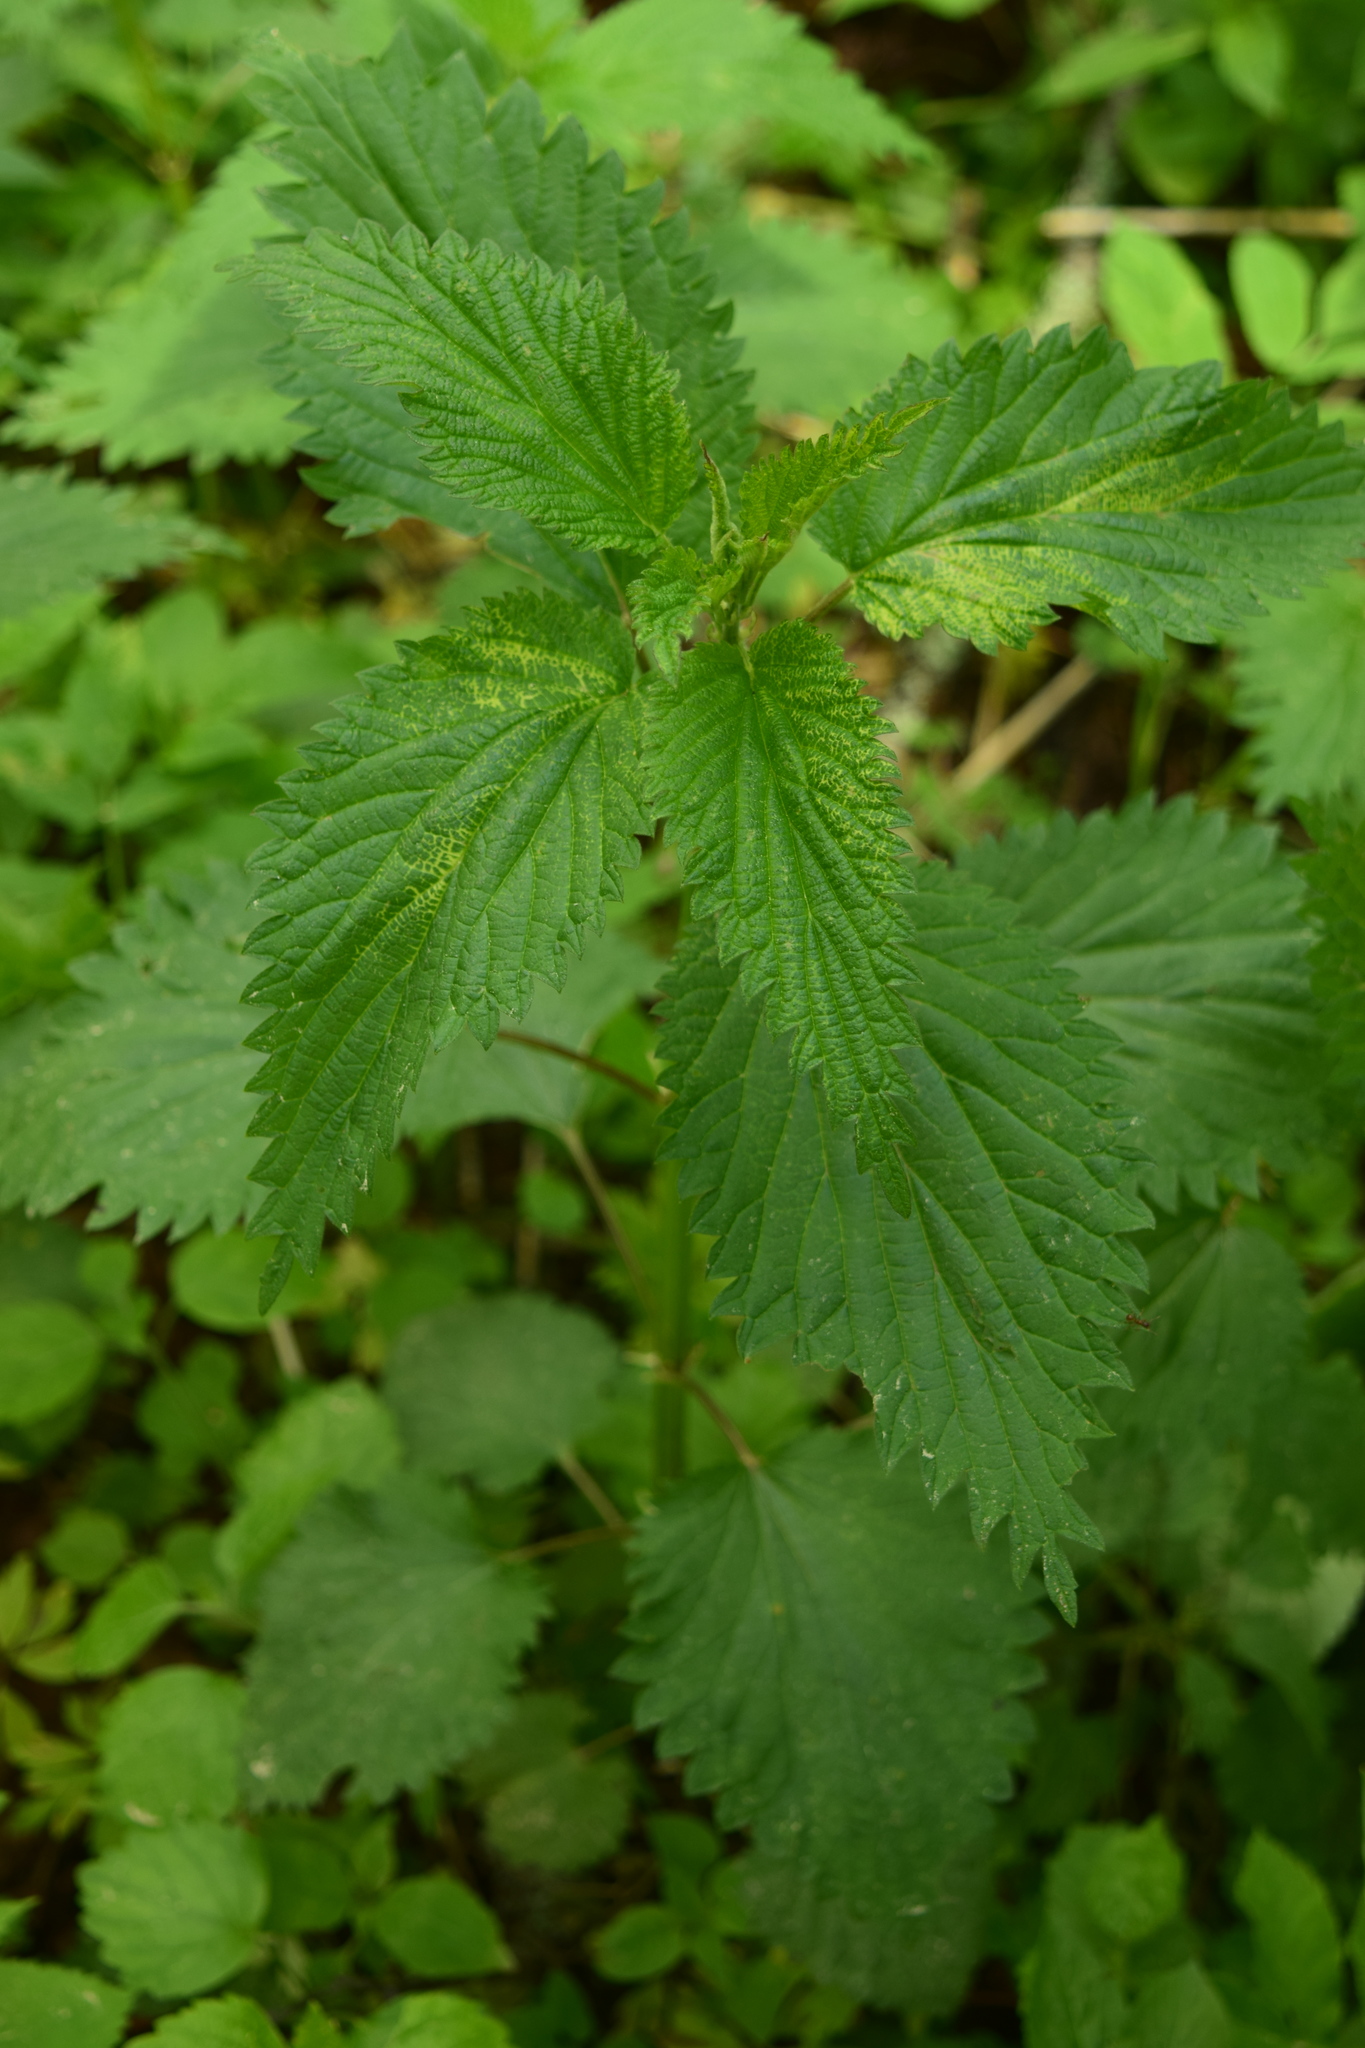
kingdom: Plantae
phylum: Tracheophyta
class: Magnoliopsida
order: Rosales
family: Urticaceae
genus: Urtica
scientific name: Urtica dioica
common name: Common nettle
